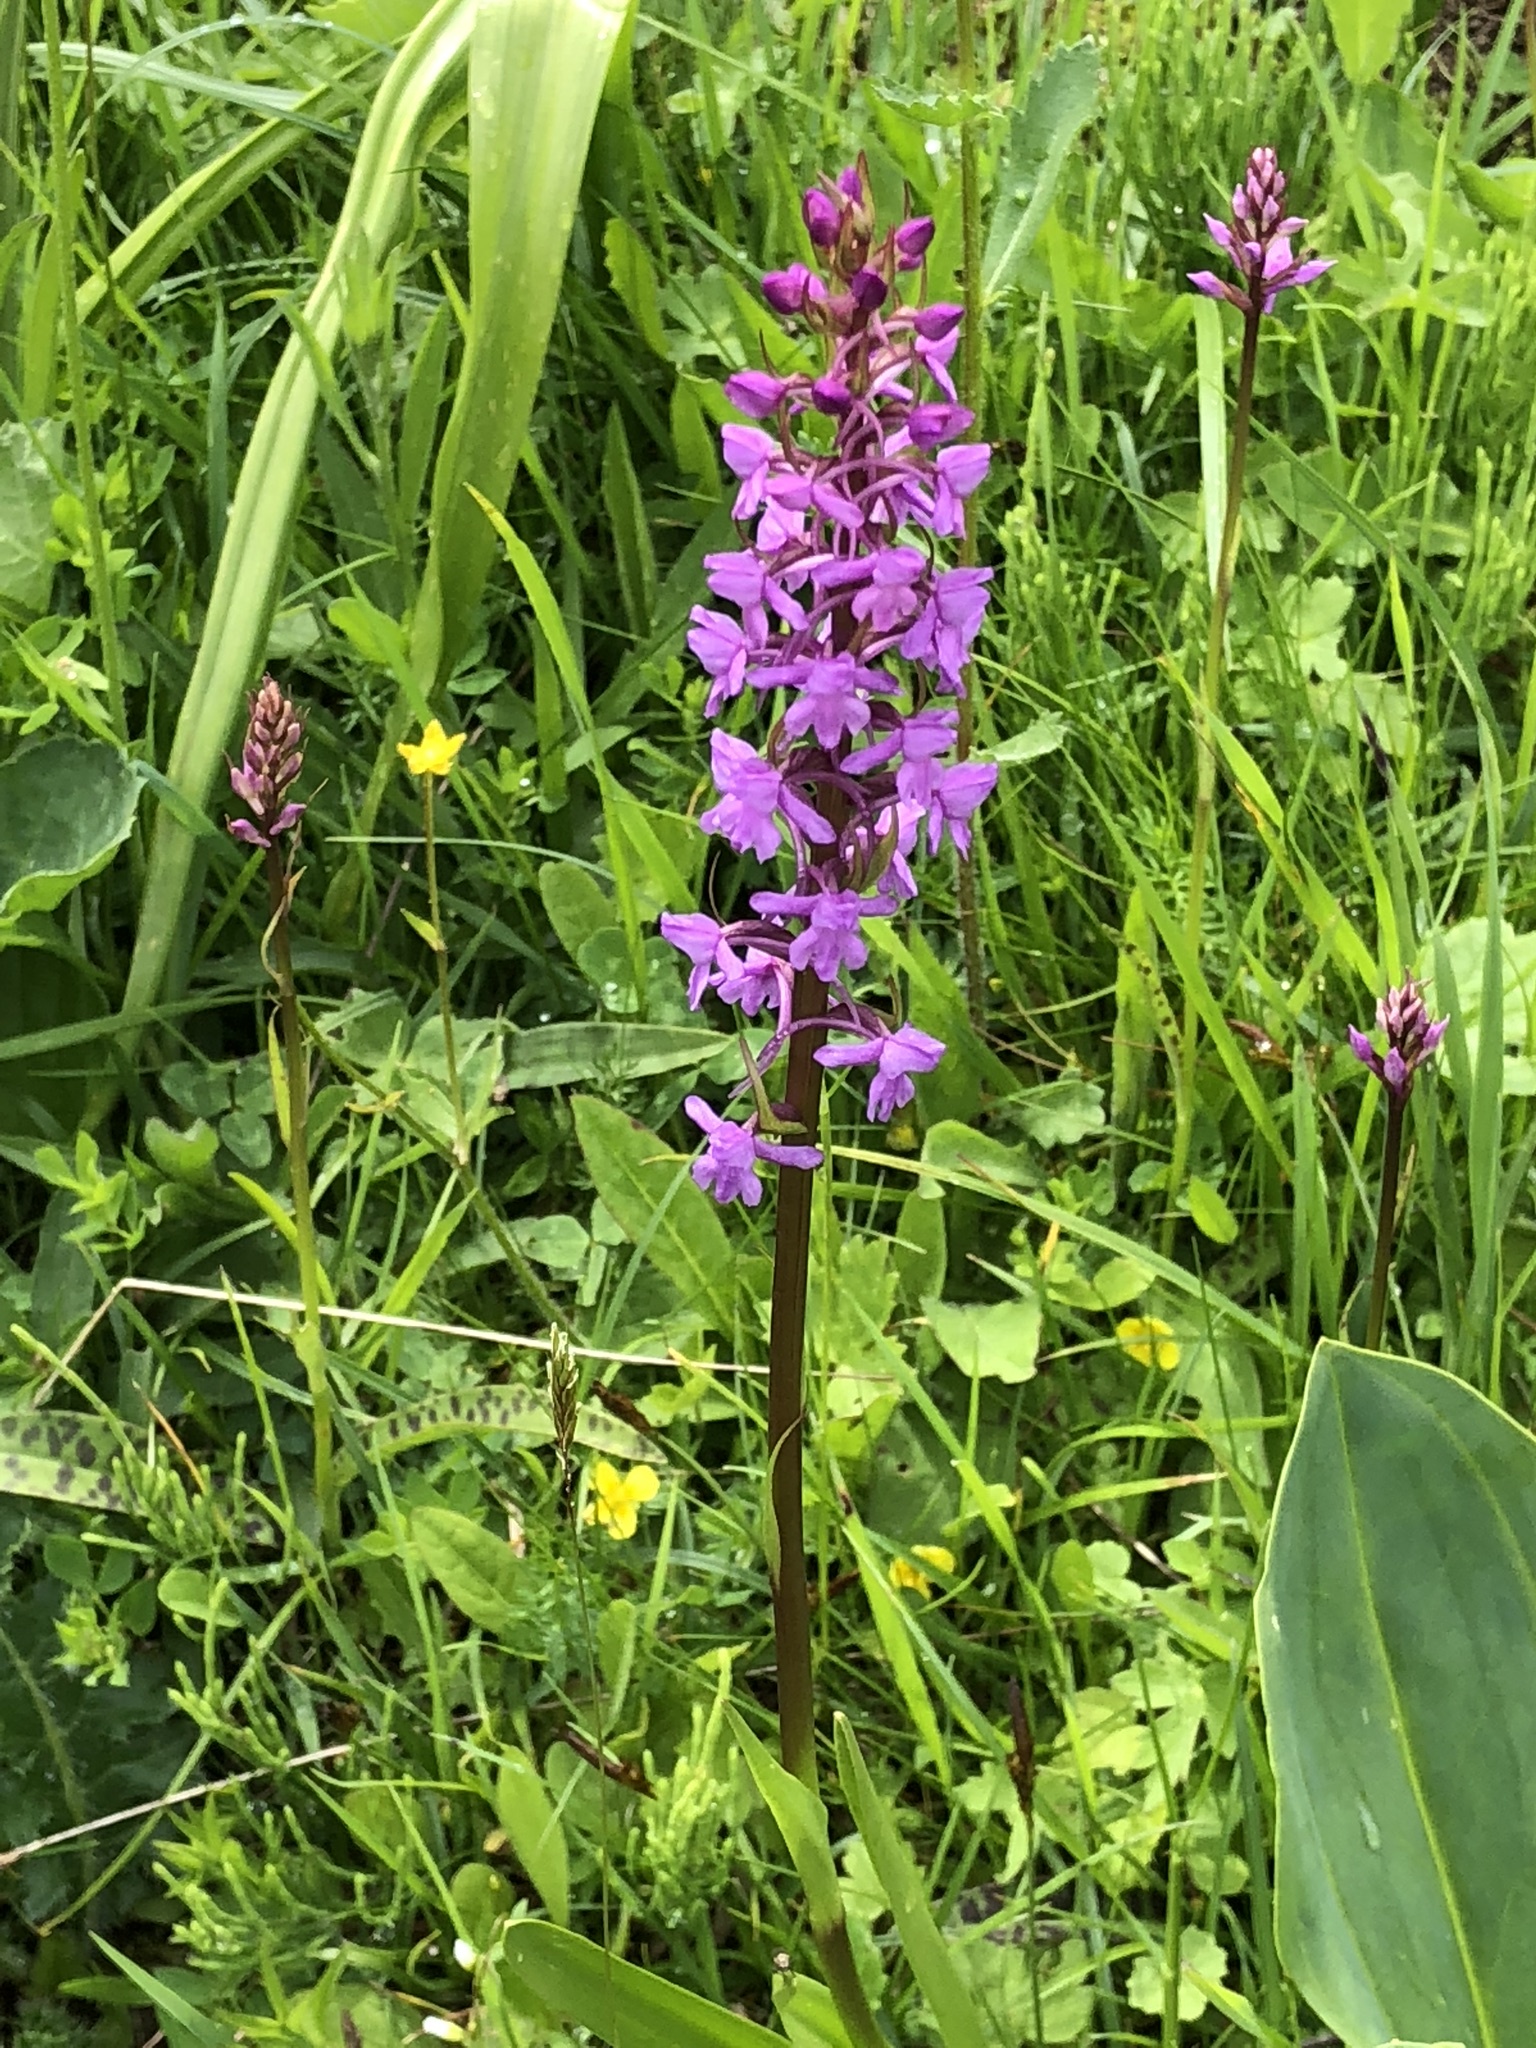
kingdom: Plantae
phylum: Tracheophyta
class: Liliopsida
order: Asparagales
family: Orchidaceae
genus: Gymnadenia
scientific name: Gymnadenia conopsea
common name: Fragrant orchid
